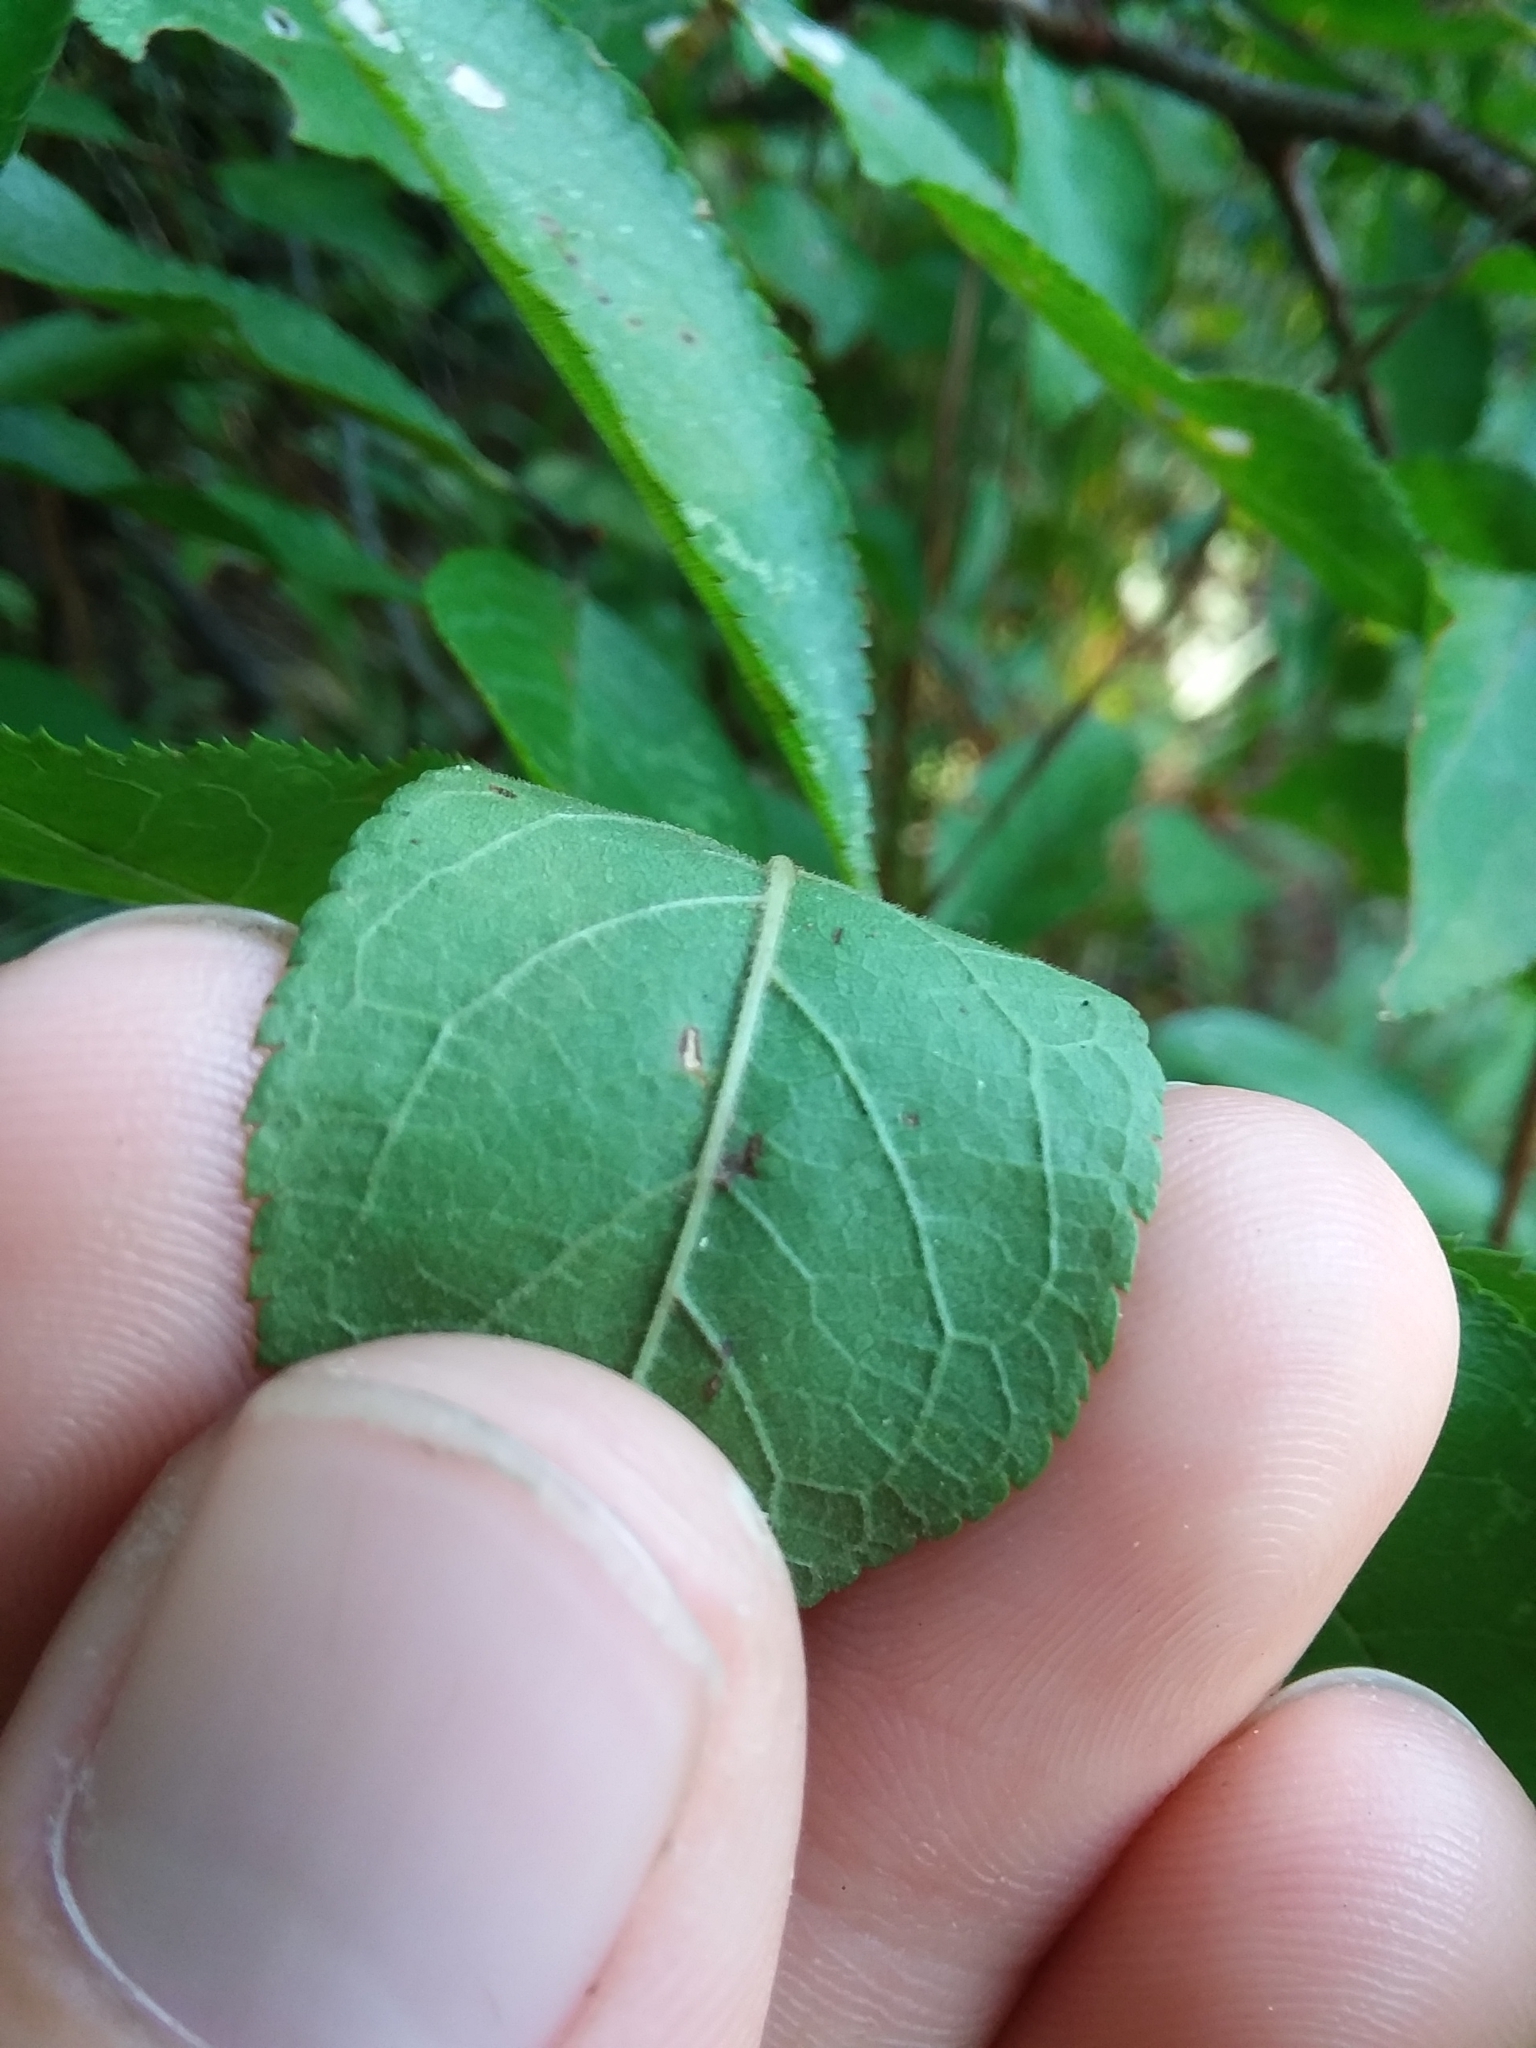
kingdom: Plantae
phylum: Tracheophyta
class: Magnoliopsida
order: Rosales
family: Rosaceae
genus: Prunus
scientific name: Prunus umbellata
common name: Allegheny plum
